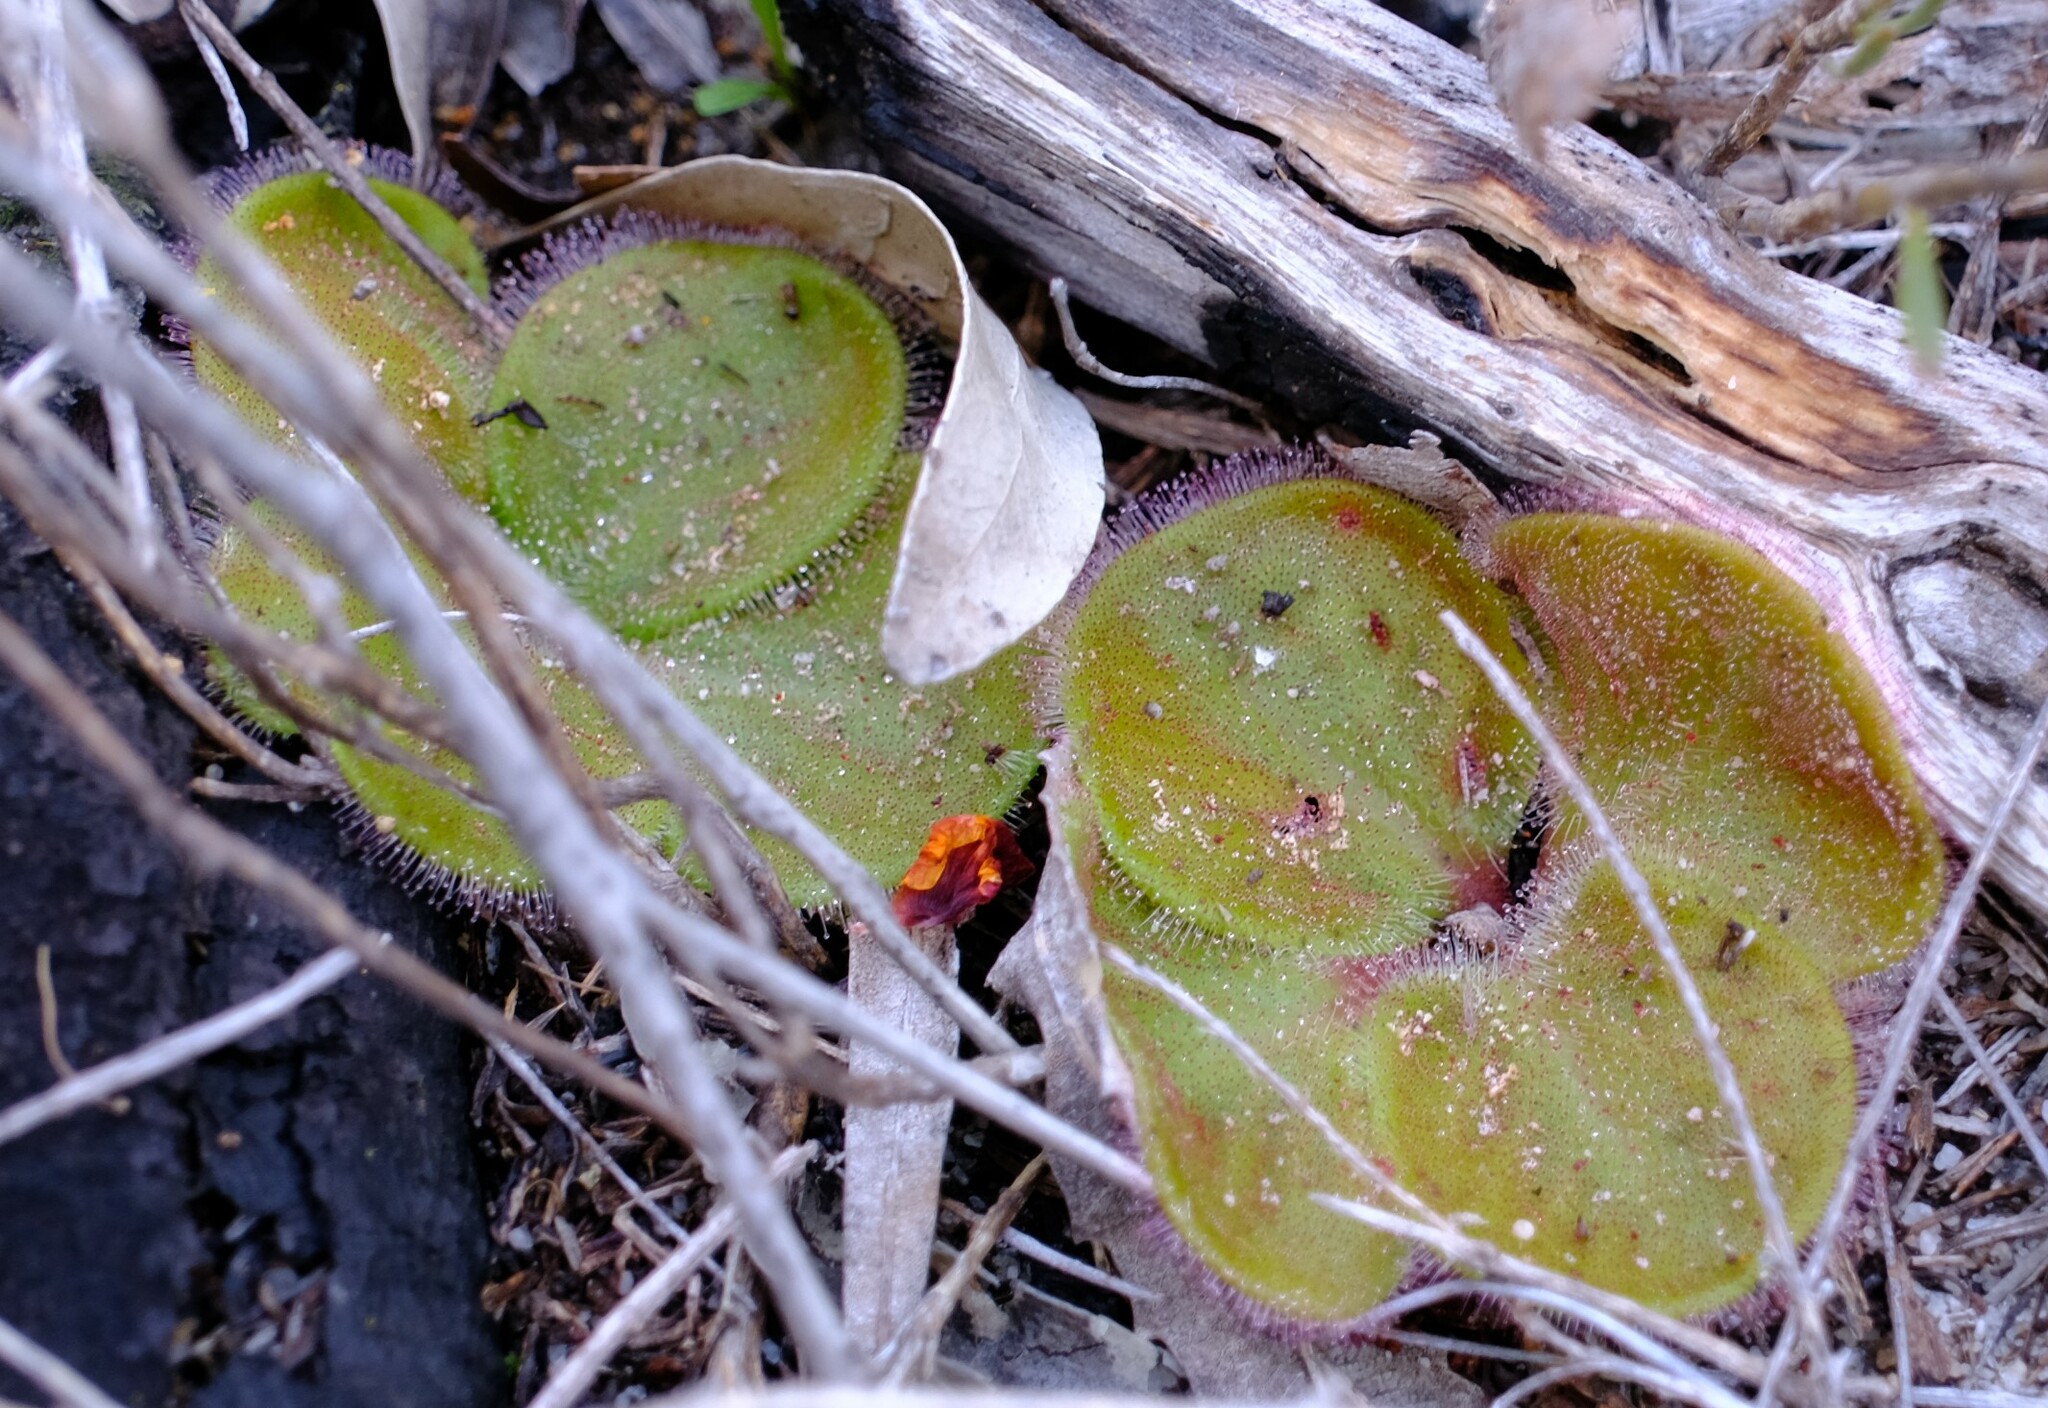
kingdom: Plantae
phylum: Tracheophyta
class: Magnoliopsida
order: Caryophyllales
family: Droseraceae
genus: Drosera
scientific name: Drosera erythrorhiza
